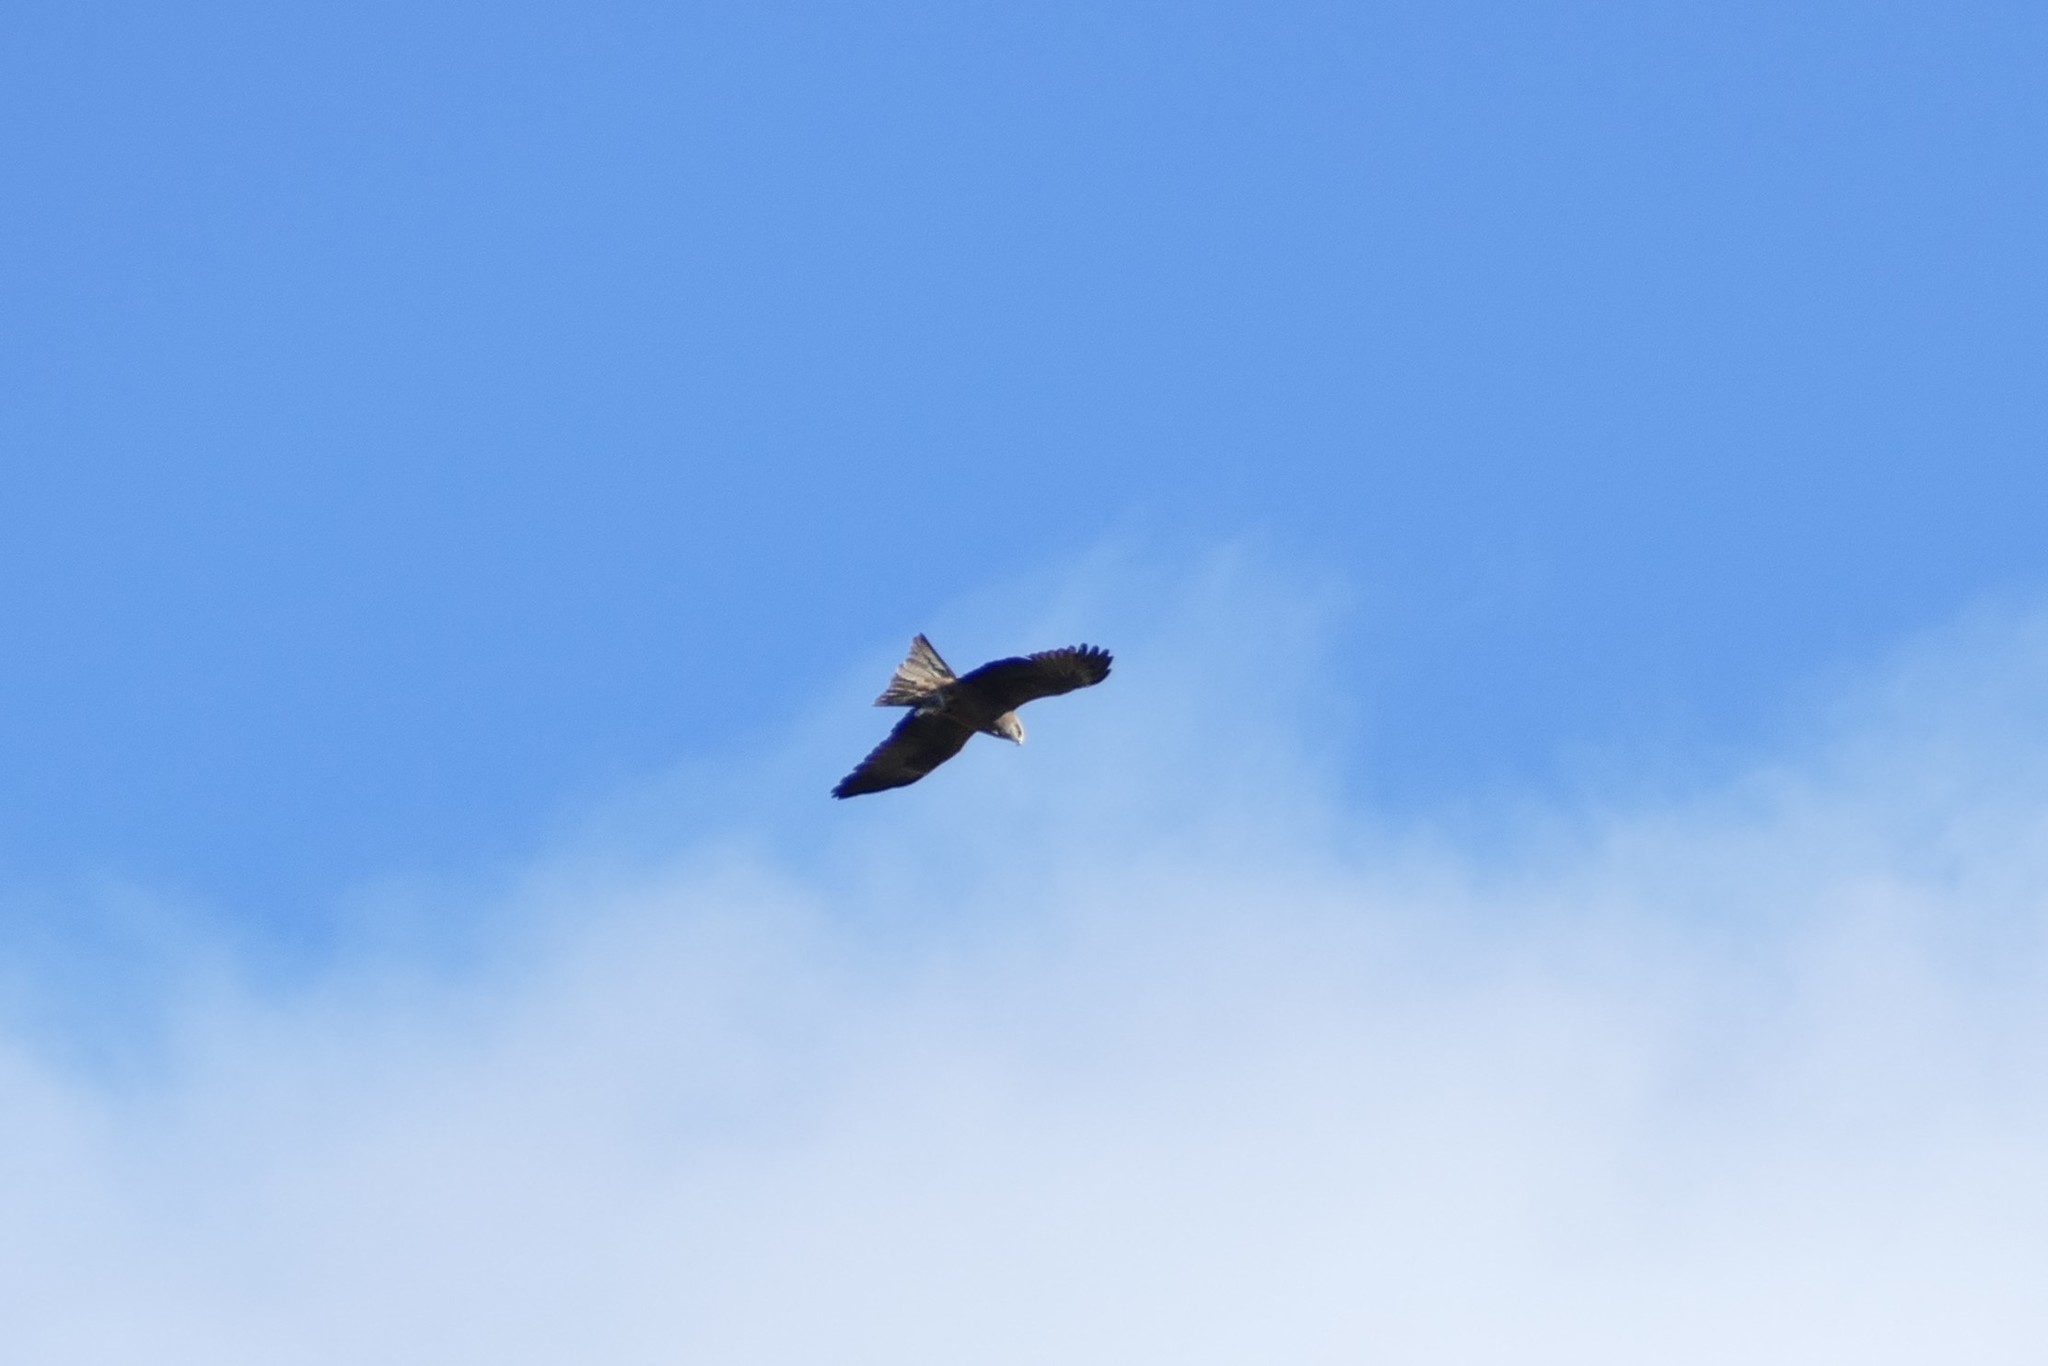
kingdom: Animalia
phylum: Chordata
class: Aves
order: Accipitriformes
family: Accipitridae
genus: Milvus
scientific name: Milvus migrans
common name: Black kite
